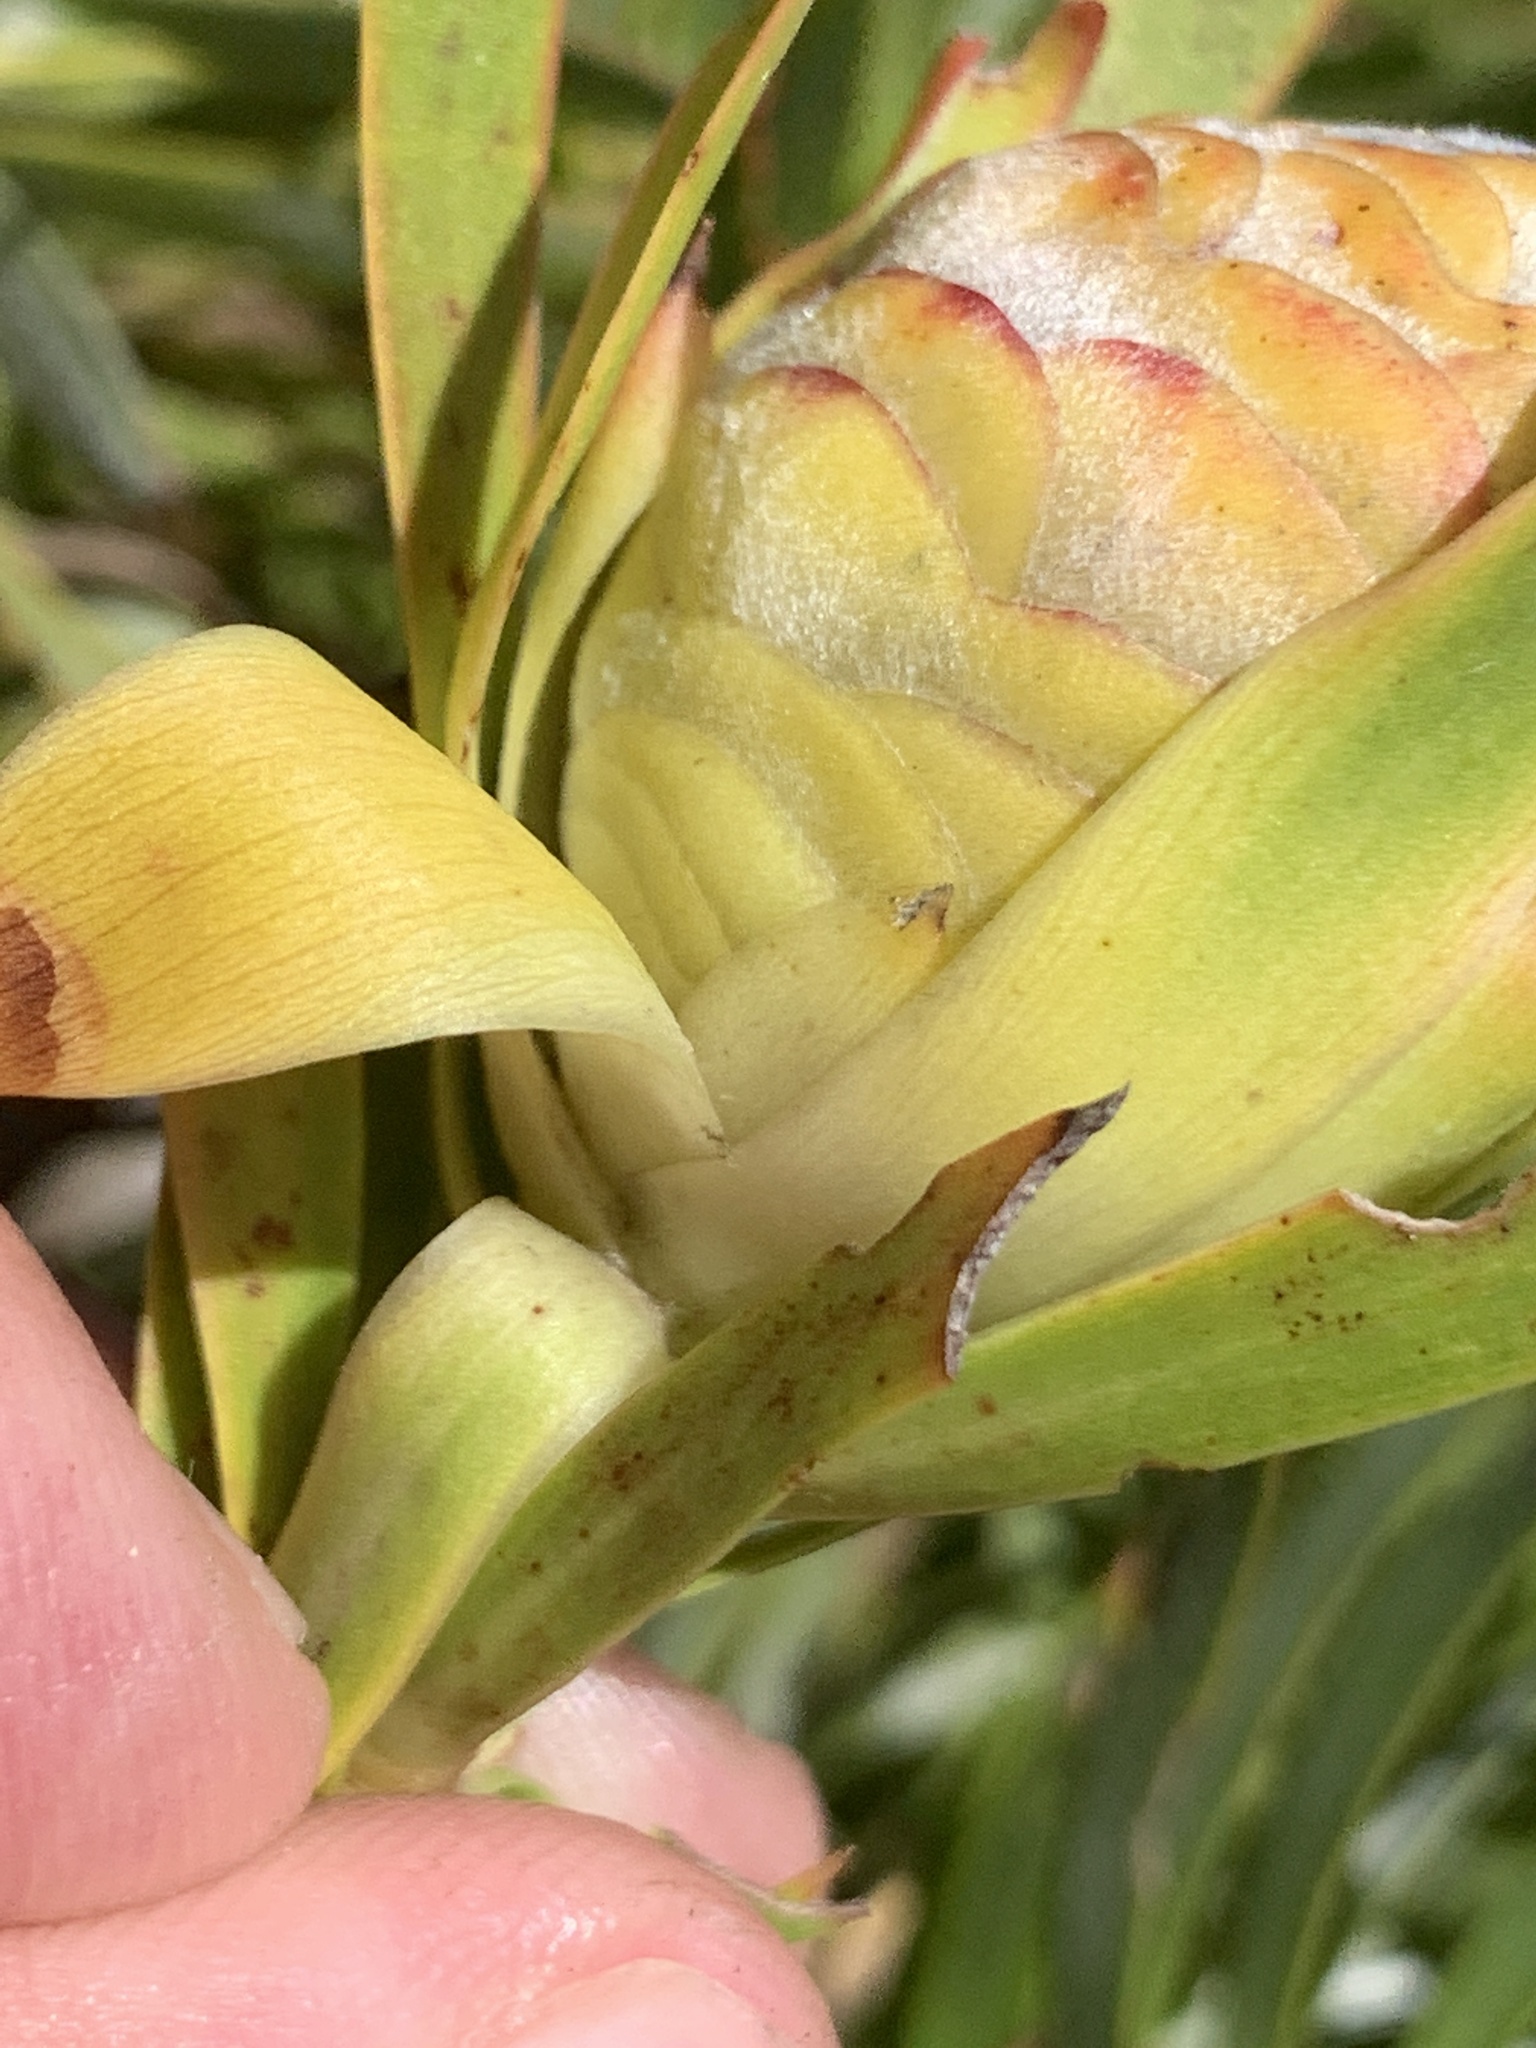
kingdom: Plantae
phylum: Tracheophyta
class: Magnoliopsida
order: Proteales
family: Proteaceae
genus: Leucadendron
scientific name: Leucadendron xanthoconus
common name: Sickle-leaf conebush
